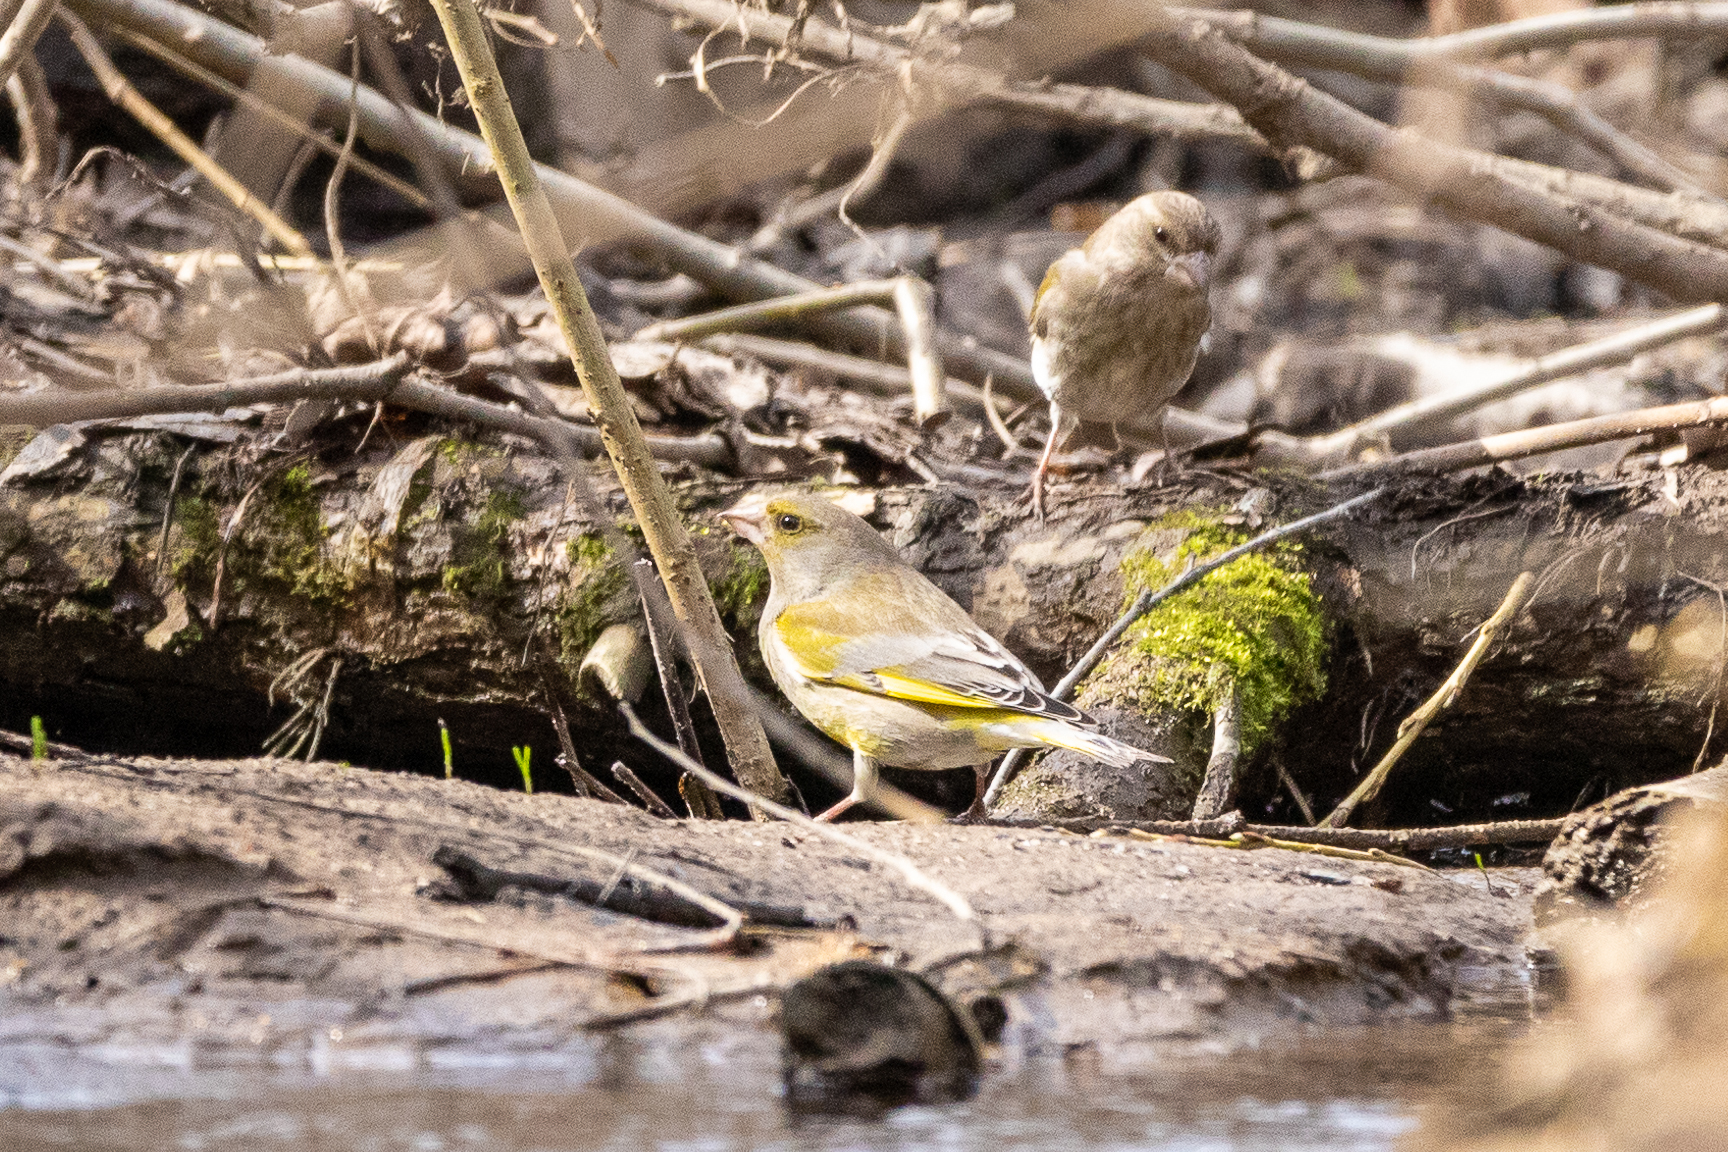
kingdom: Plantae
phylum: Tracheophyta
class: Liliopsida
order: Poales
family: Poaceae
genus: Chloris
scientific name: Chloris chloris
